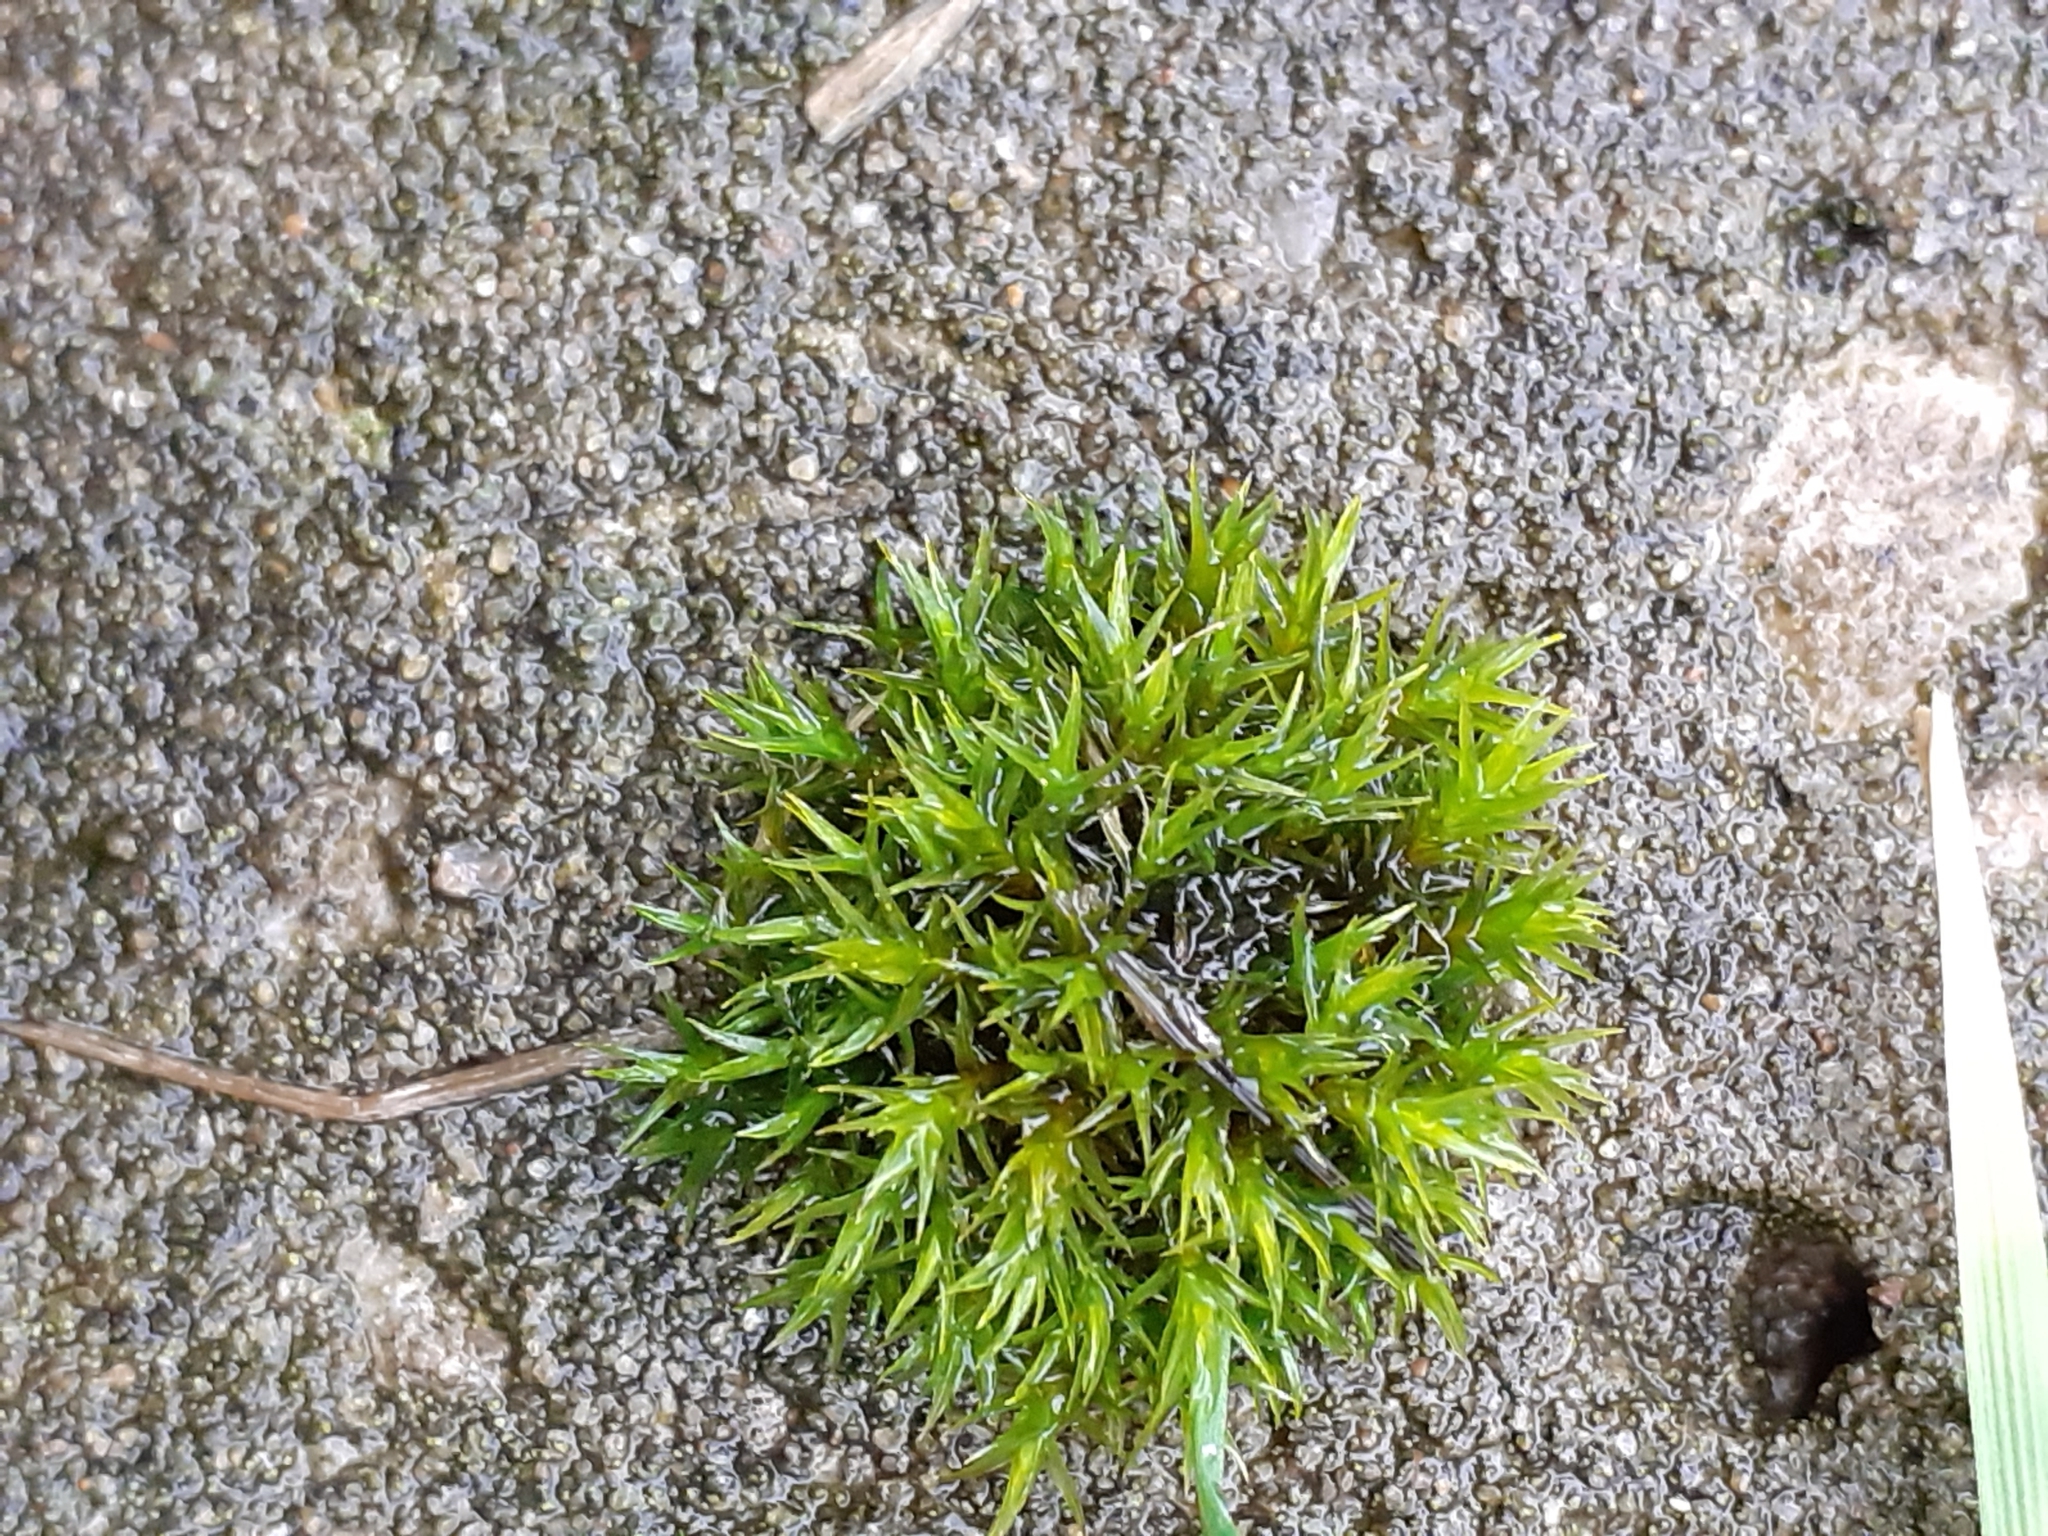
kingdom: Plantae
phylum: Bryophyta
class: Bryopsida
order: Pottiales
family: Pottiaceae
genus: Vinealobryum
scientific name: Vinealobryum vineale
